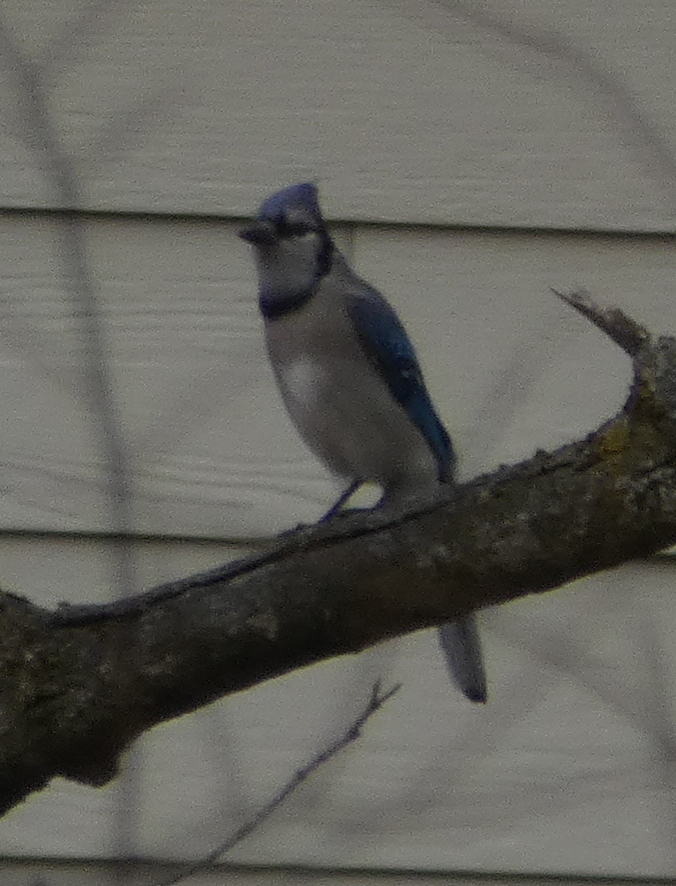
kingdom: Animalia
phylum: Chordata
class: Aves
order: Passeriformes
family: Corvidae
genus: Cyanocitta
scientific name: Cyanocitta cristata
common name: Blue jay
